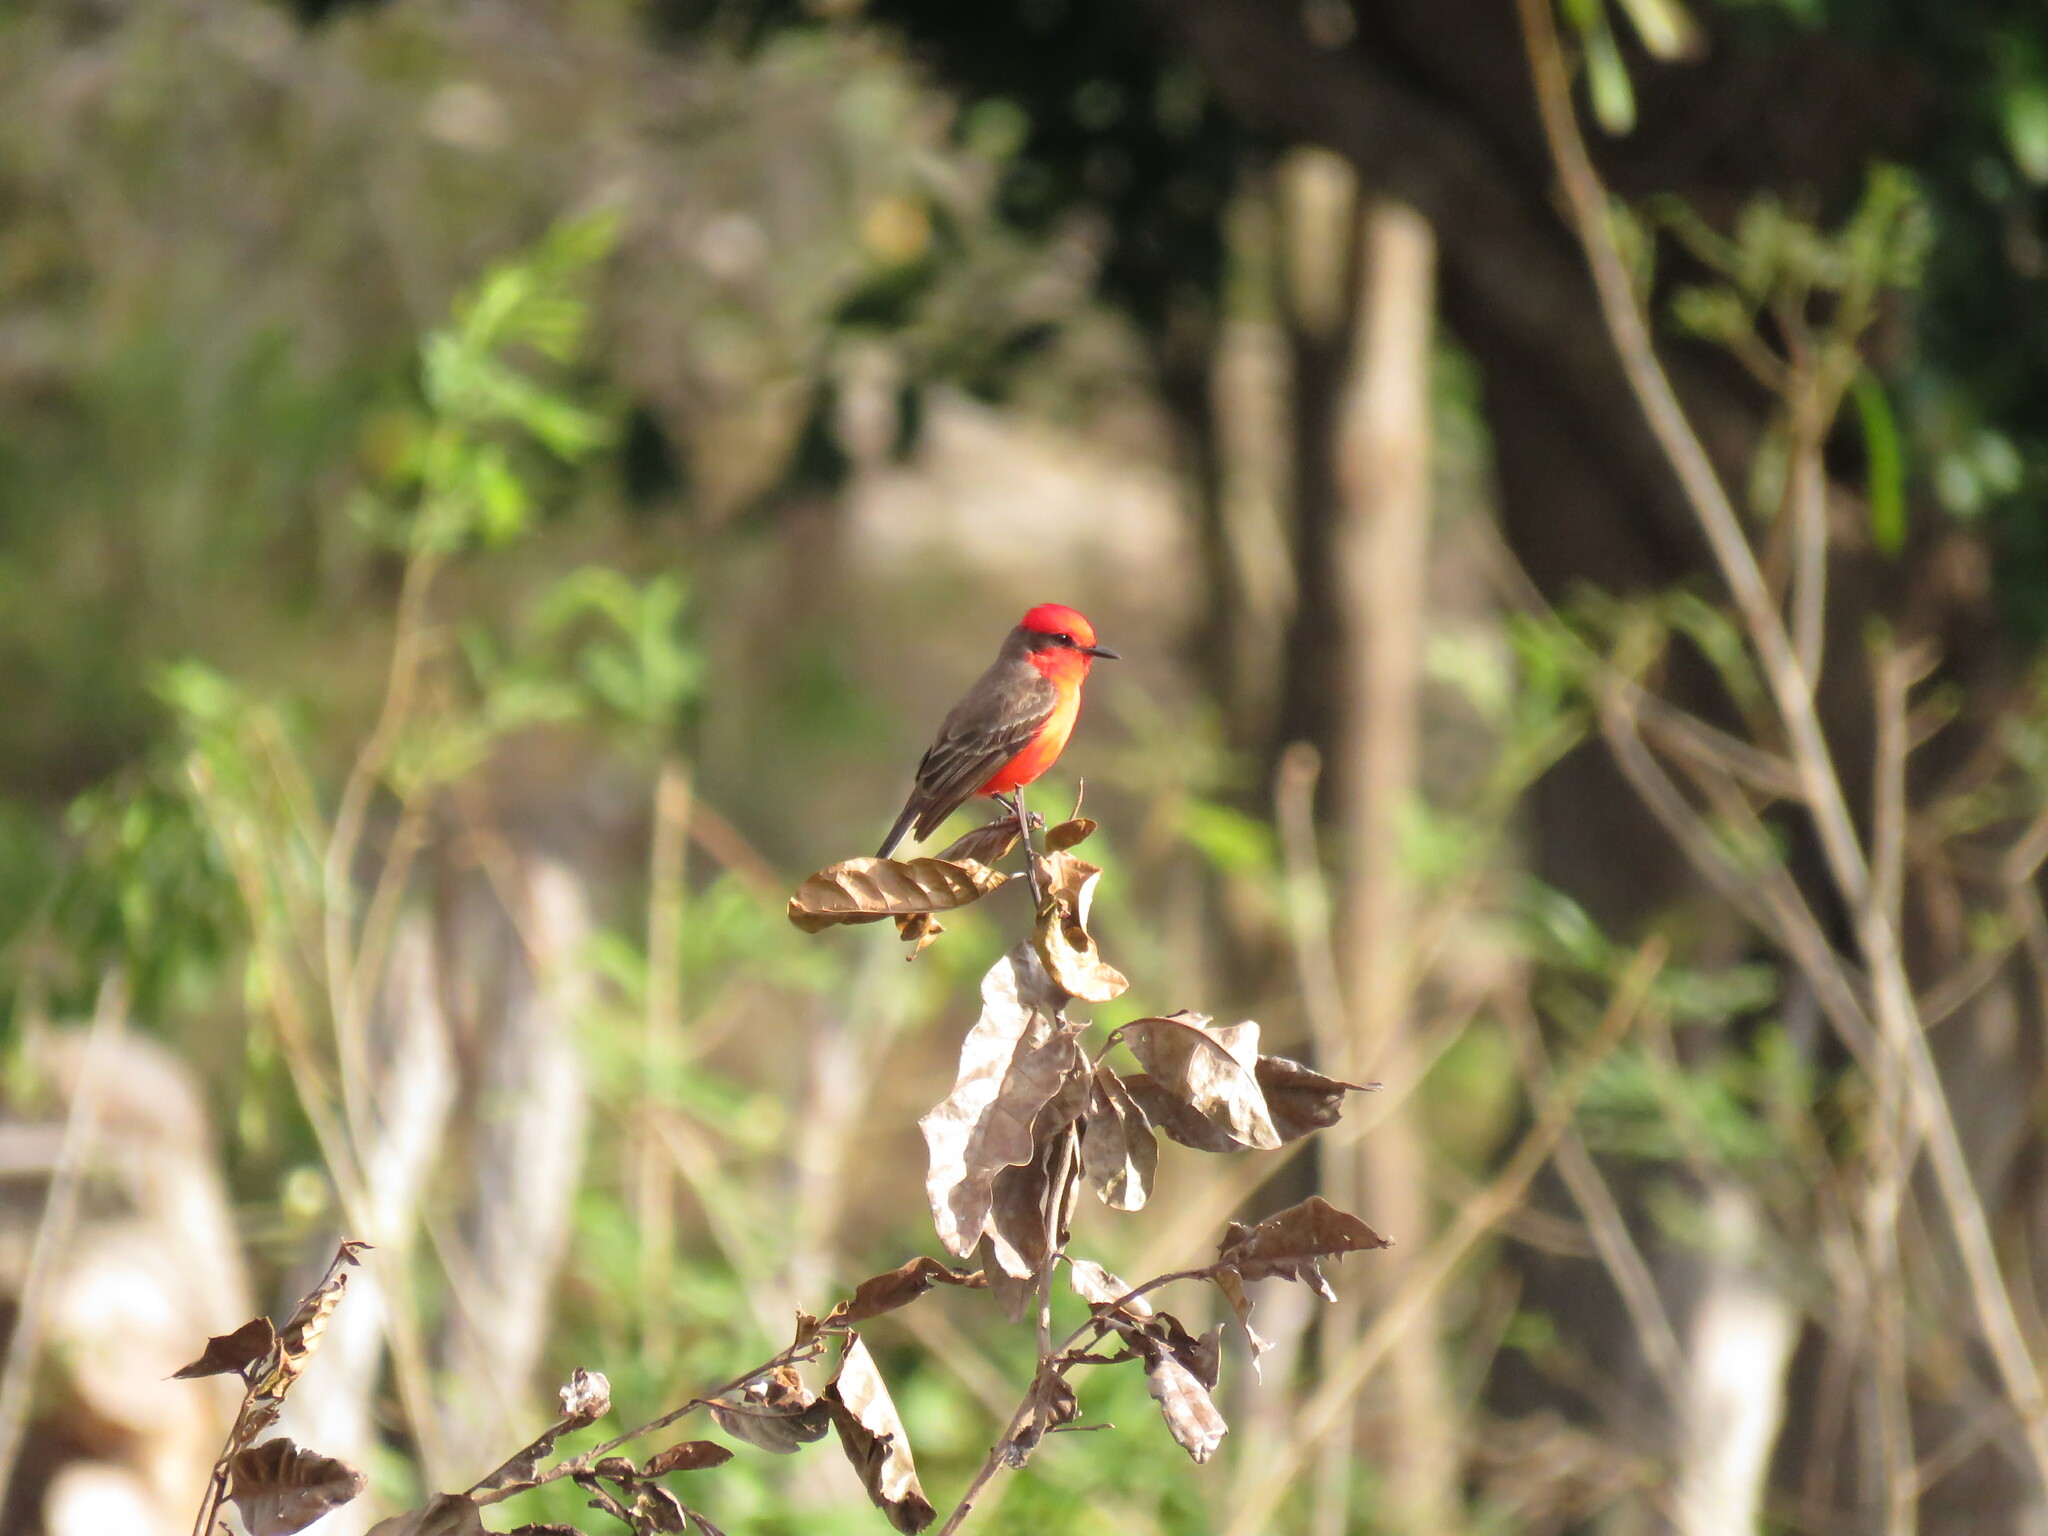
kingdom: Animalia
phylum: Chordata
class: Aves
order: Passeriformes
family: Tyrannidae
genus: Pyrocephalus
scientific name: Pyrocephalus rubinus
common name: Vermilion flycatcher
